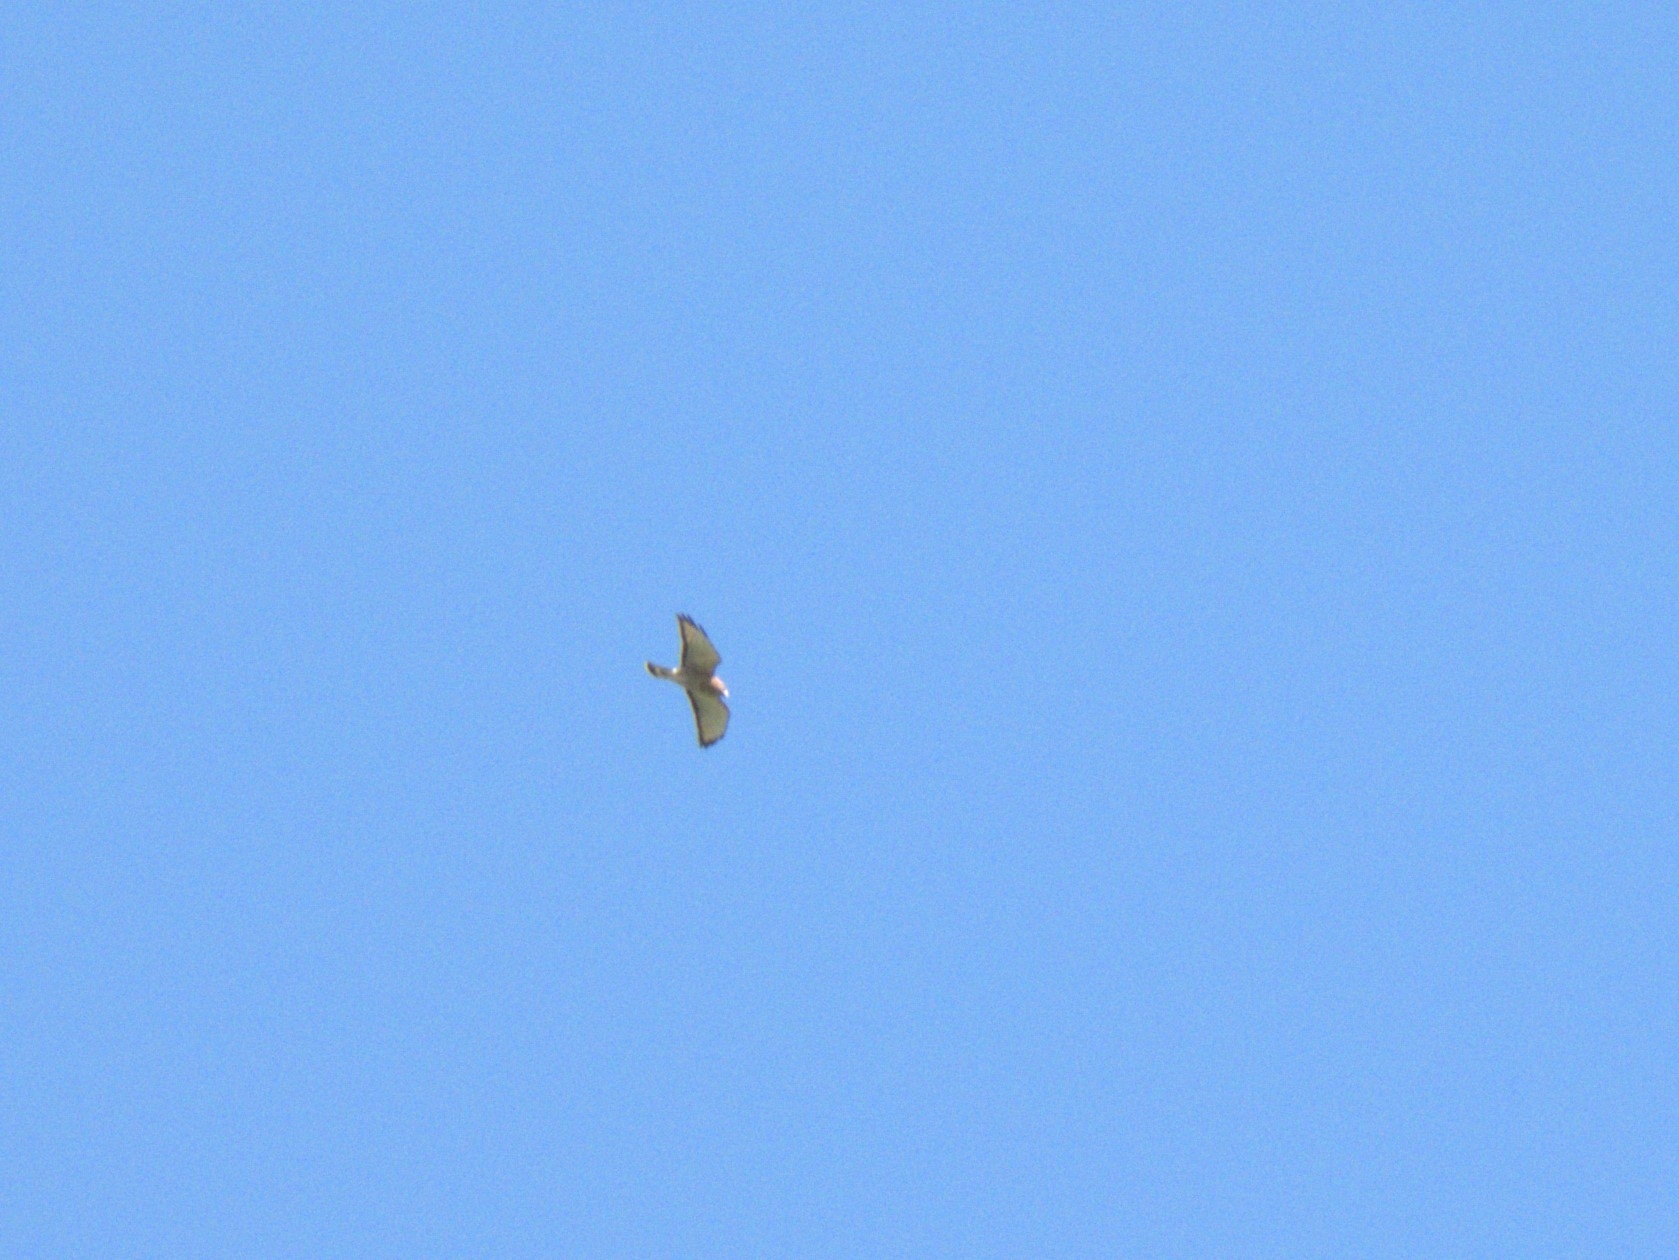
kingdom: Animalia
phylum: Chordata
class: Aves
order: Accipitriformes
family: Accipitridae
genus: Buteo
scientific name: Buteo platypterus
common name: Broad-winged hawk
